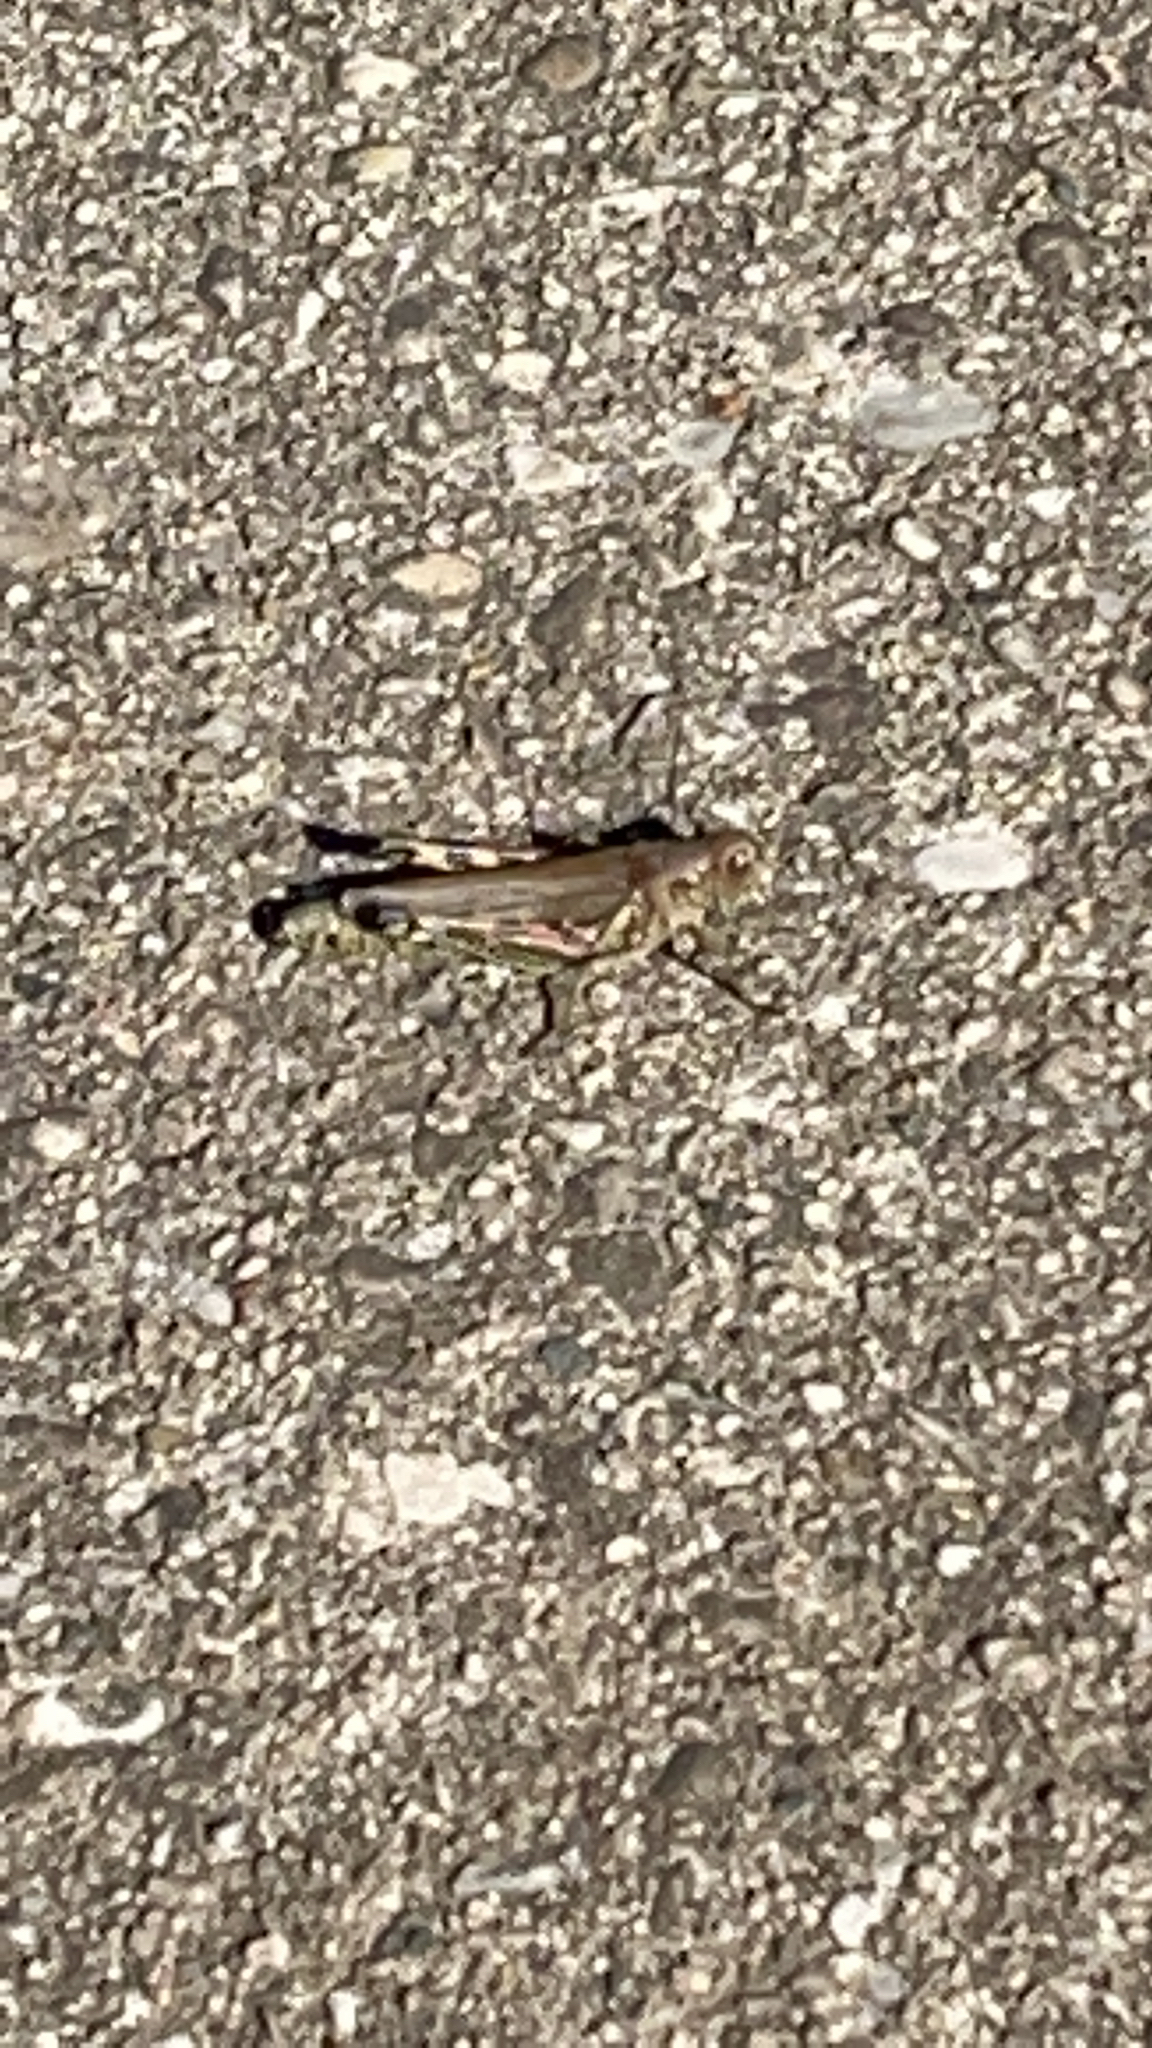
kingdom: Animalia
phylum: Arthropoda
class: Insecta
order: Orthoptera
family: Acrididae
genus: Melanoplus
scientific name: Melanoplus differentialis
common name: Differential grasshopper
